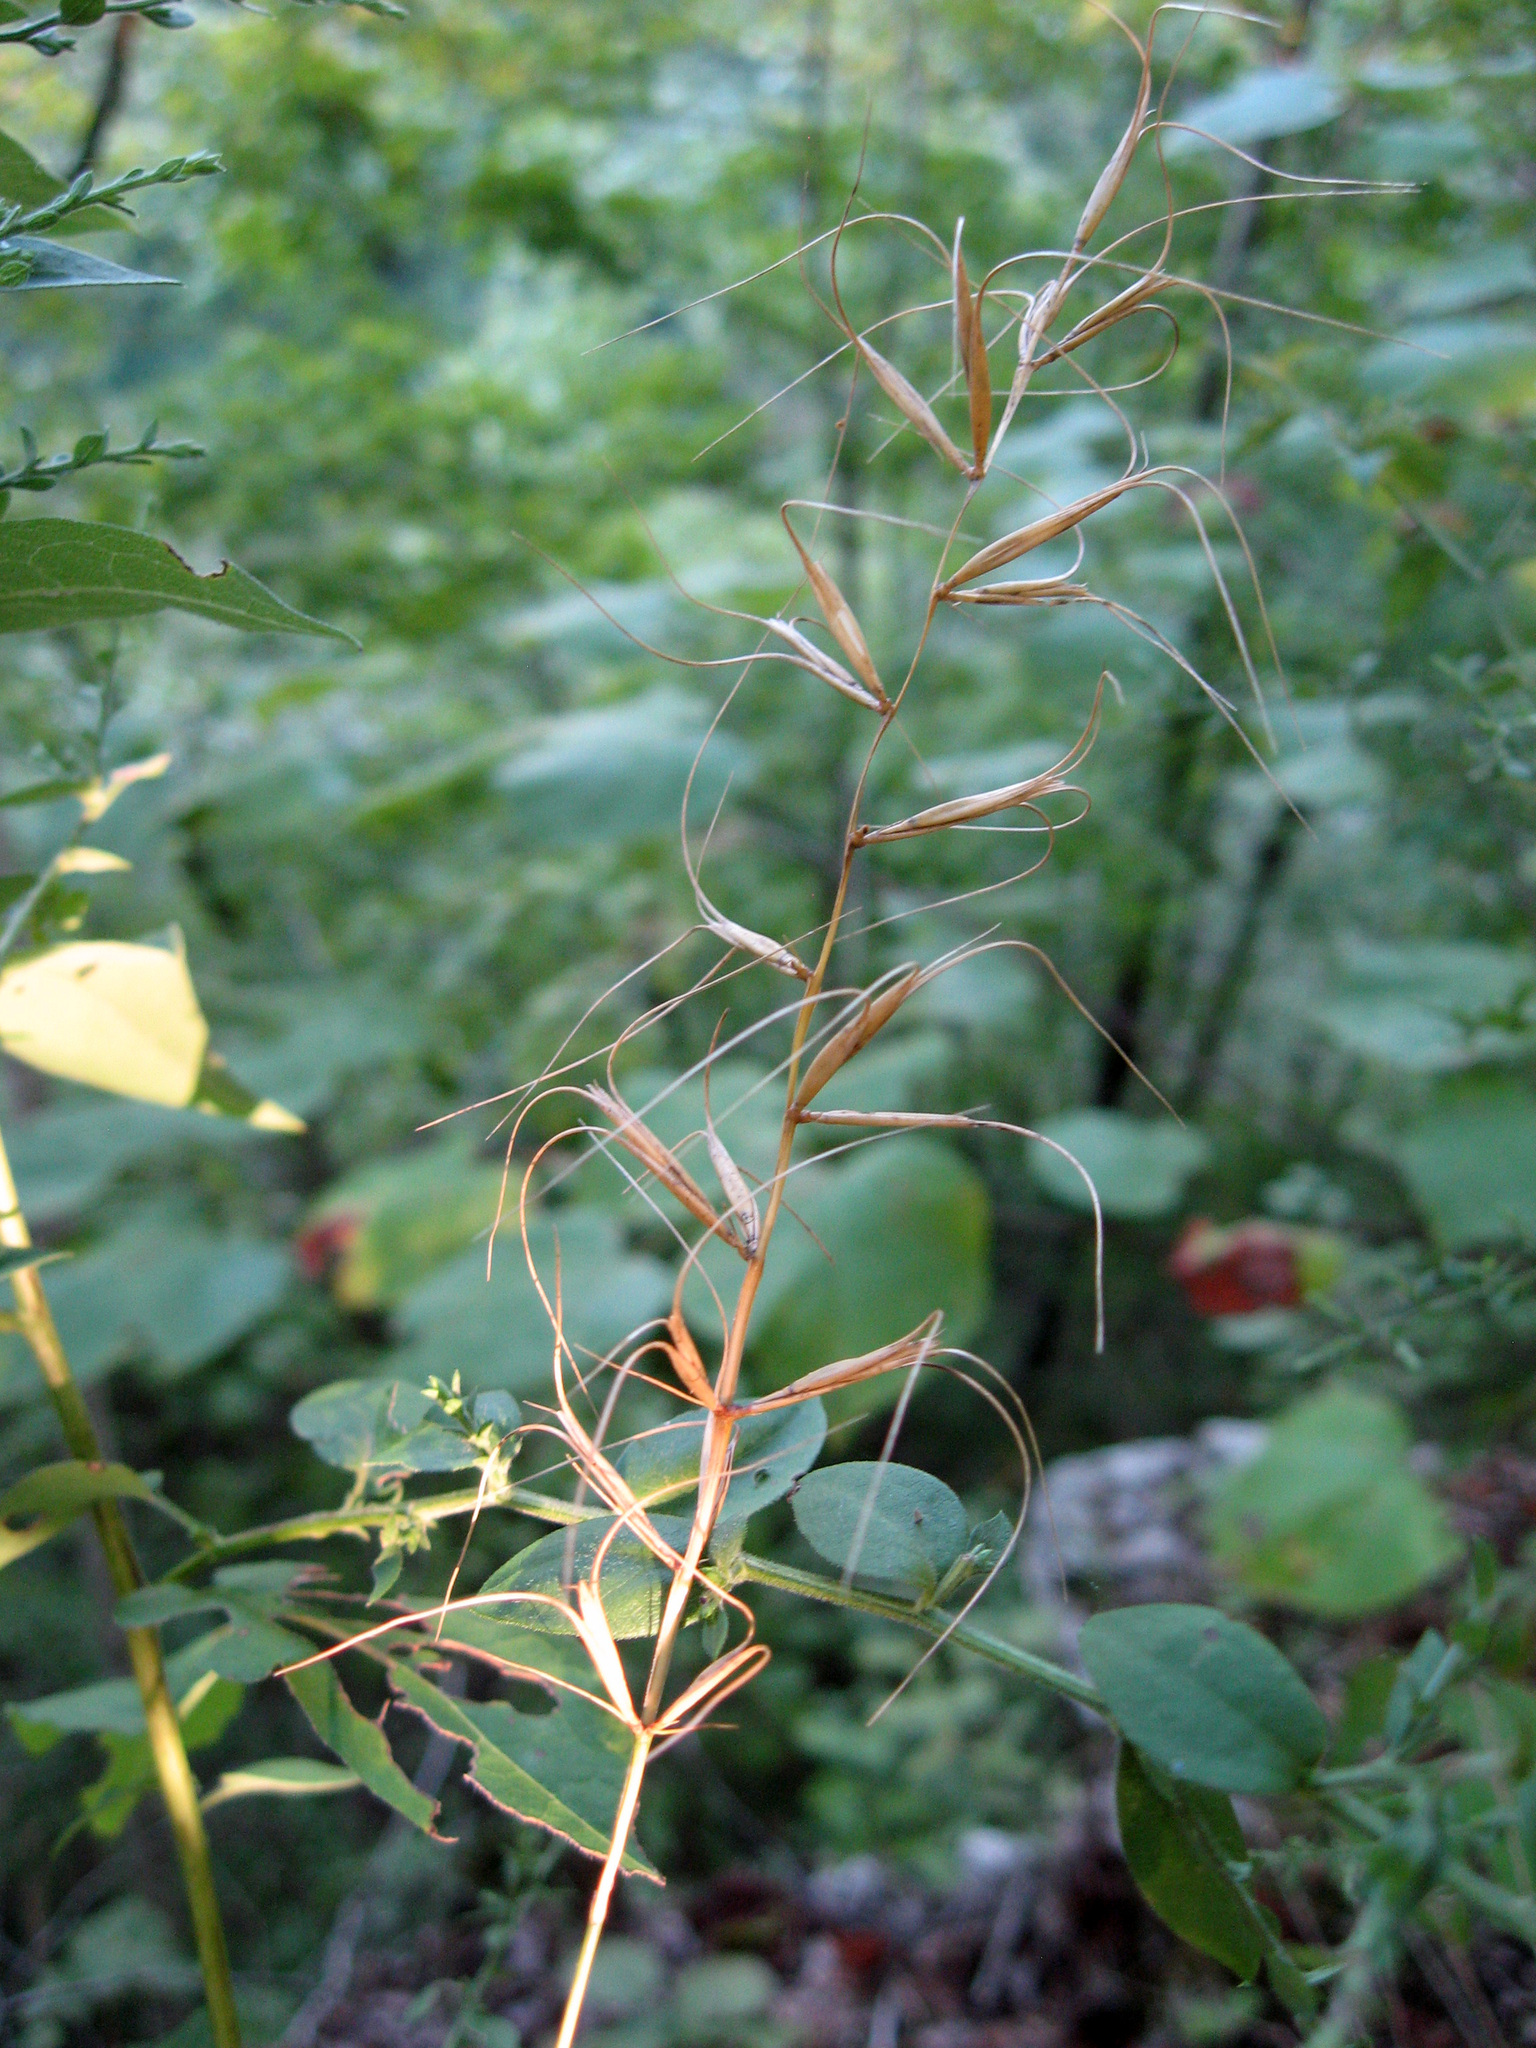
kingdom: Plantae
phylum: Tracheophyta
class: Liliopsida
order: Poales
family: Poaceae
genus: Elymus
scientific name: Elymus svensonii
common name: Svenson's wild rye
